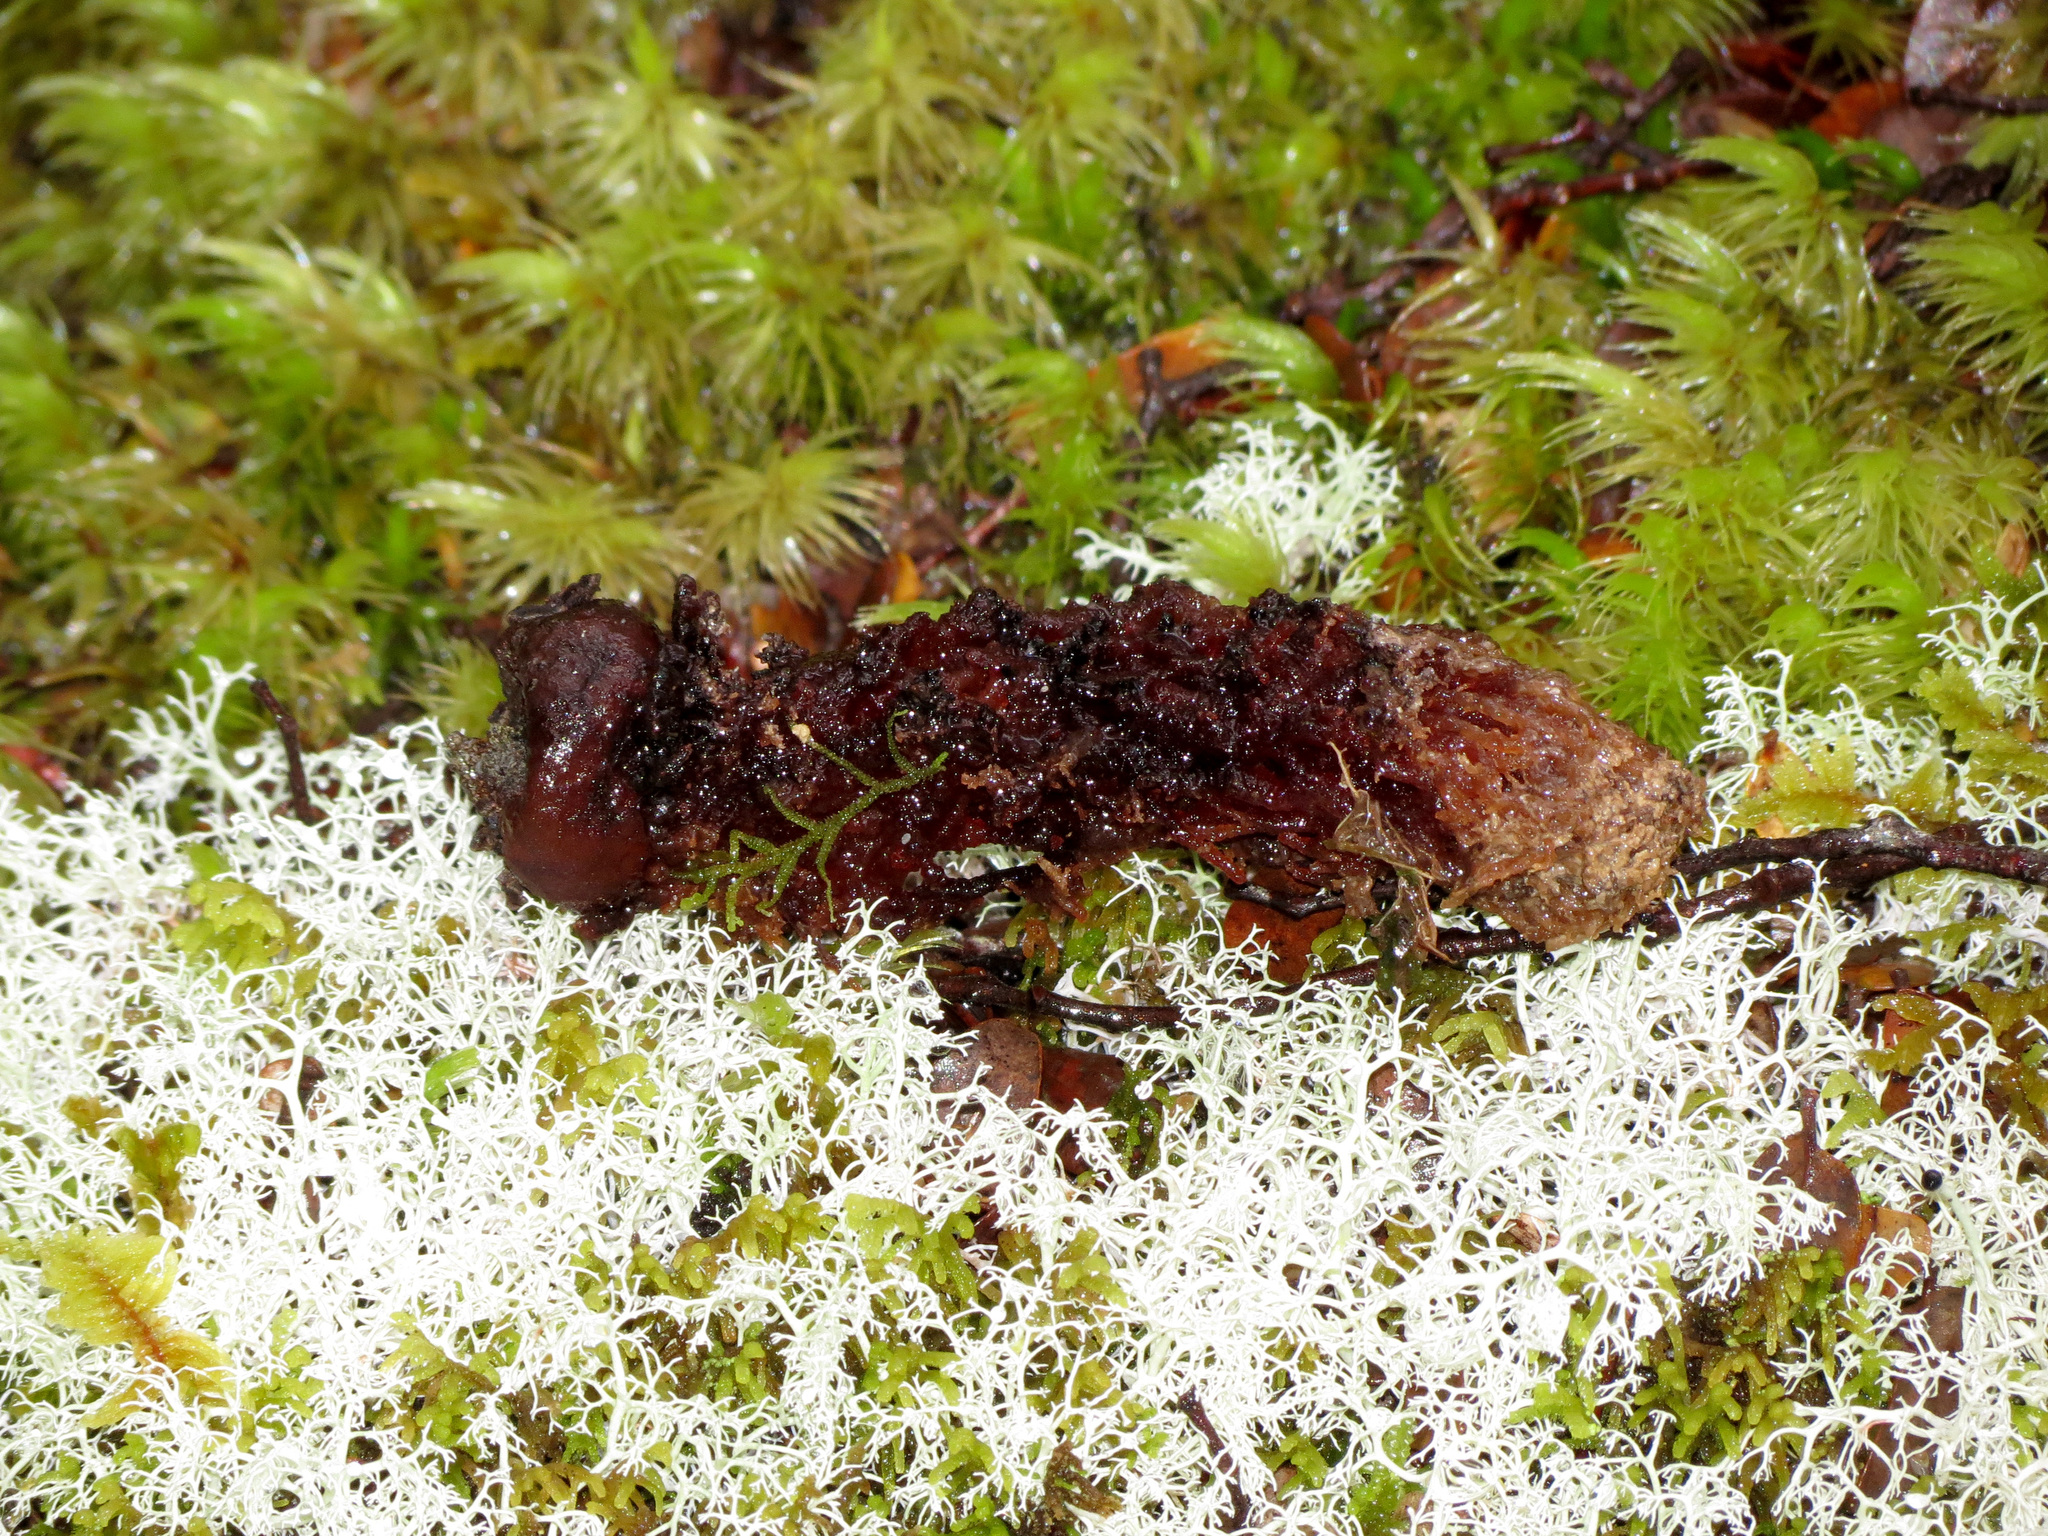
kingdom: Fungi
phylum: Basidiomycota
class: Agaricomycetes
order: Boletales
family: Calostomataceae
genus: Calostoma
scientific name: Calostoma rodwayi
